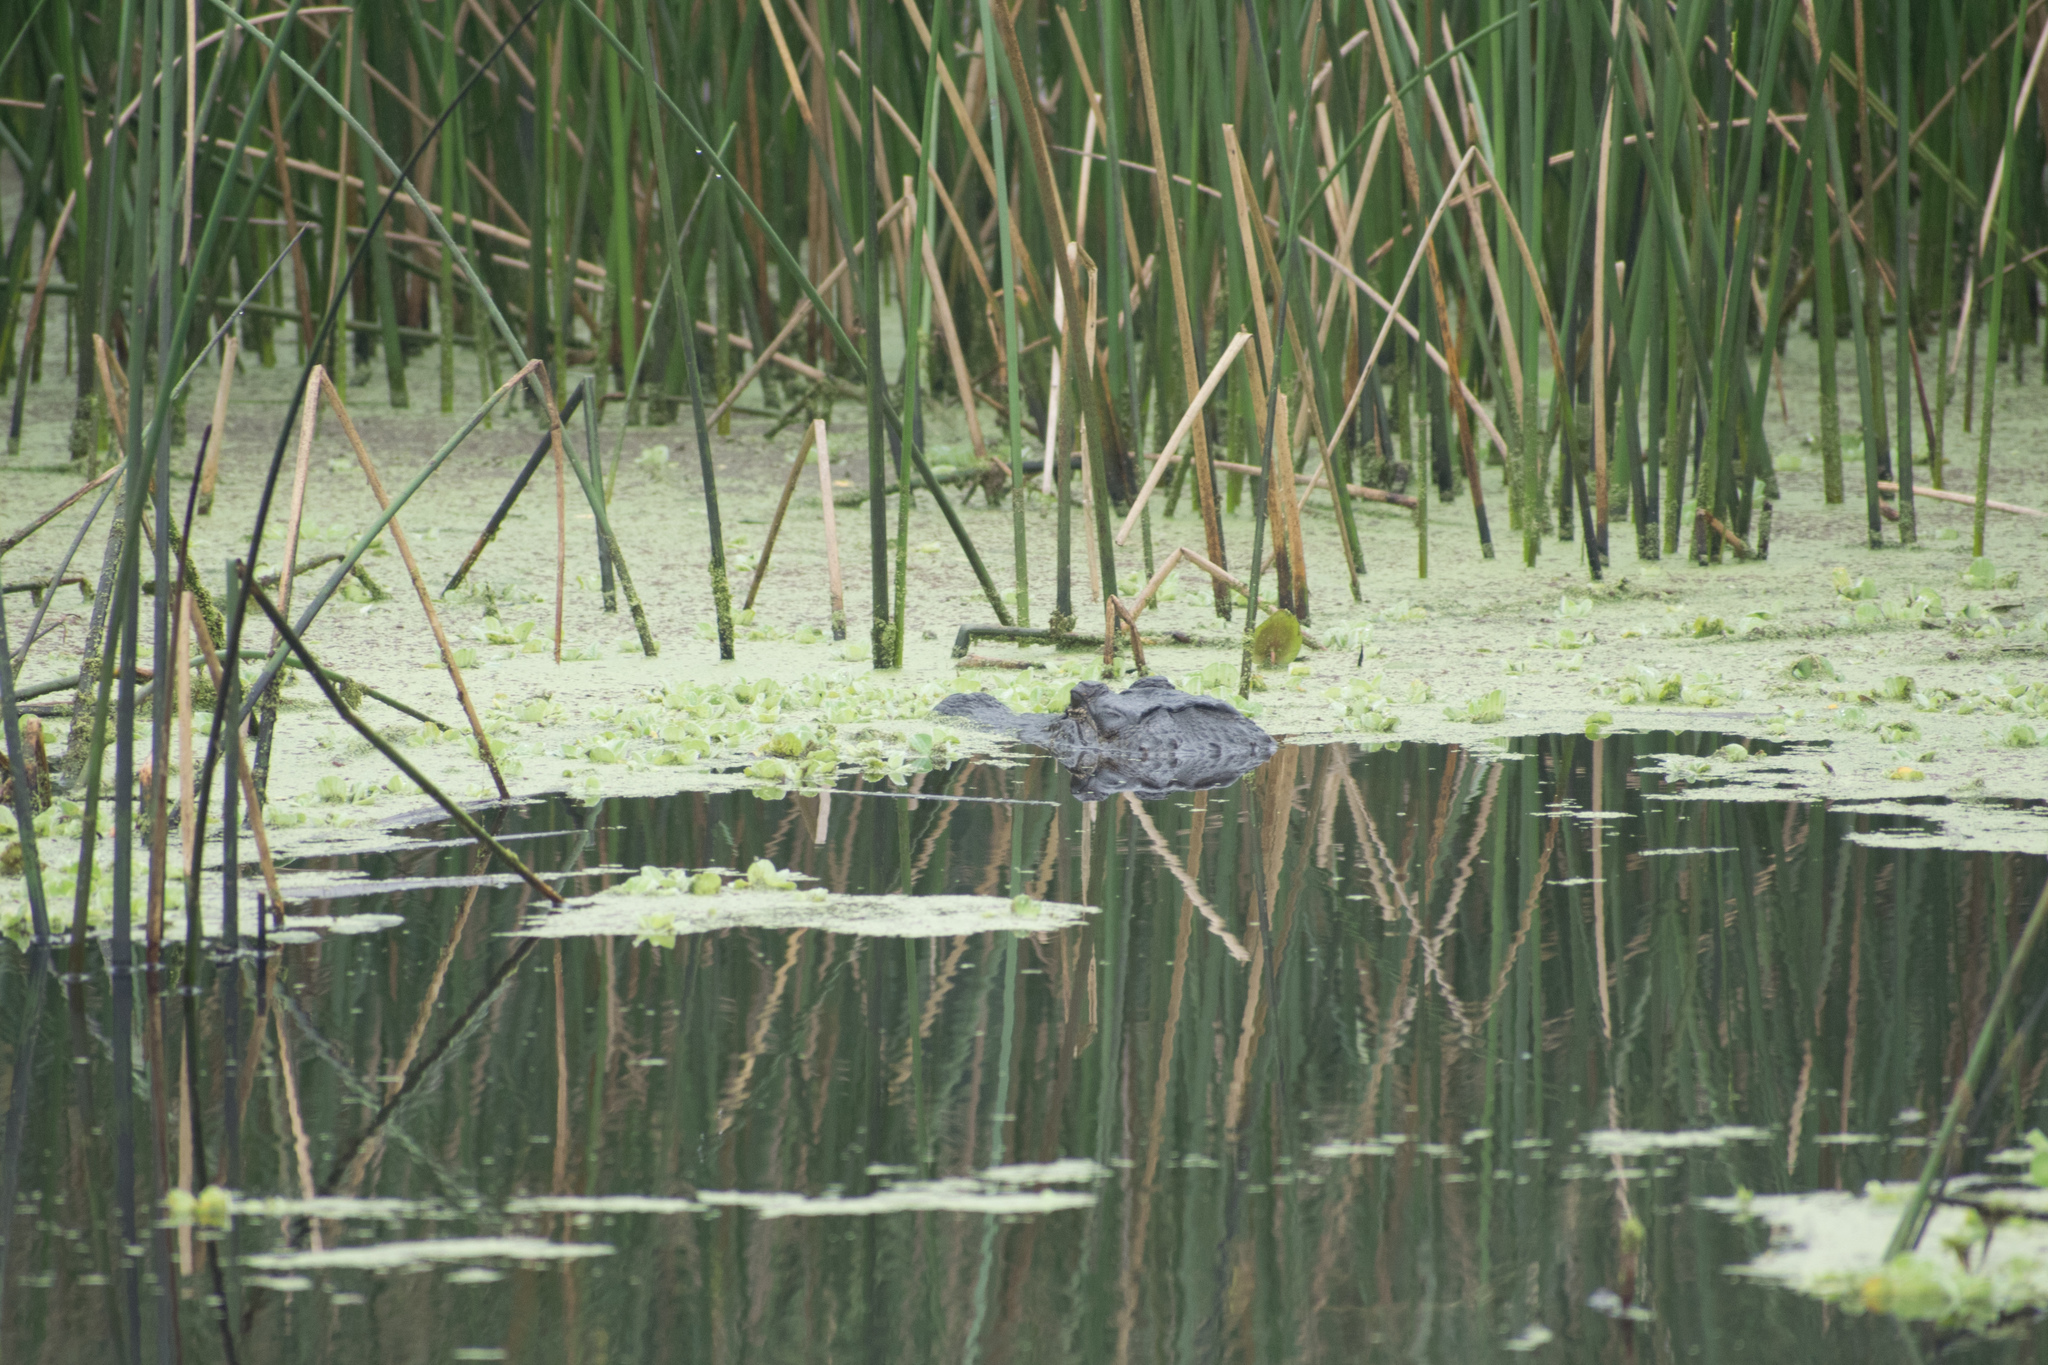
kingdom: Animalia
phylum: Chordata
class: Crocodylia
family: Alligatoridae
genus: Alligator
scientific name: Alligator mississippiensis
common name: American alligator
